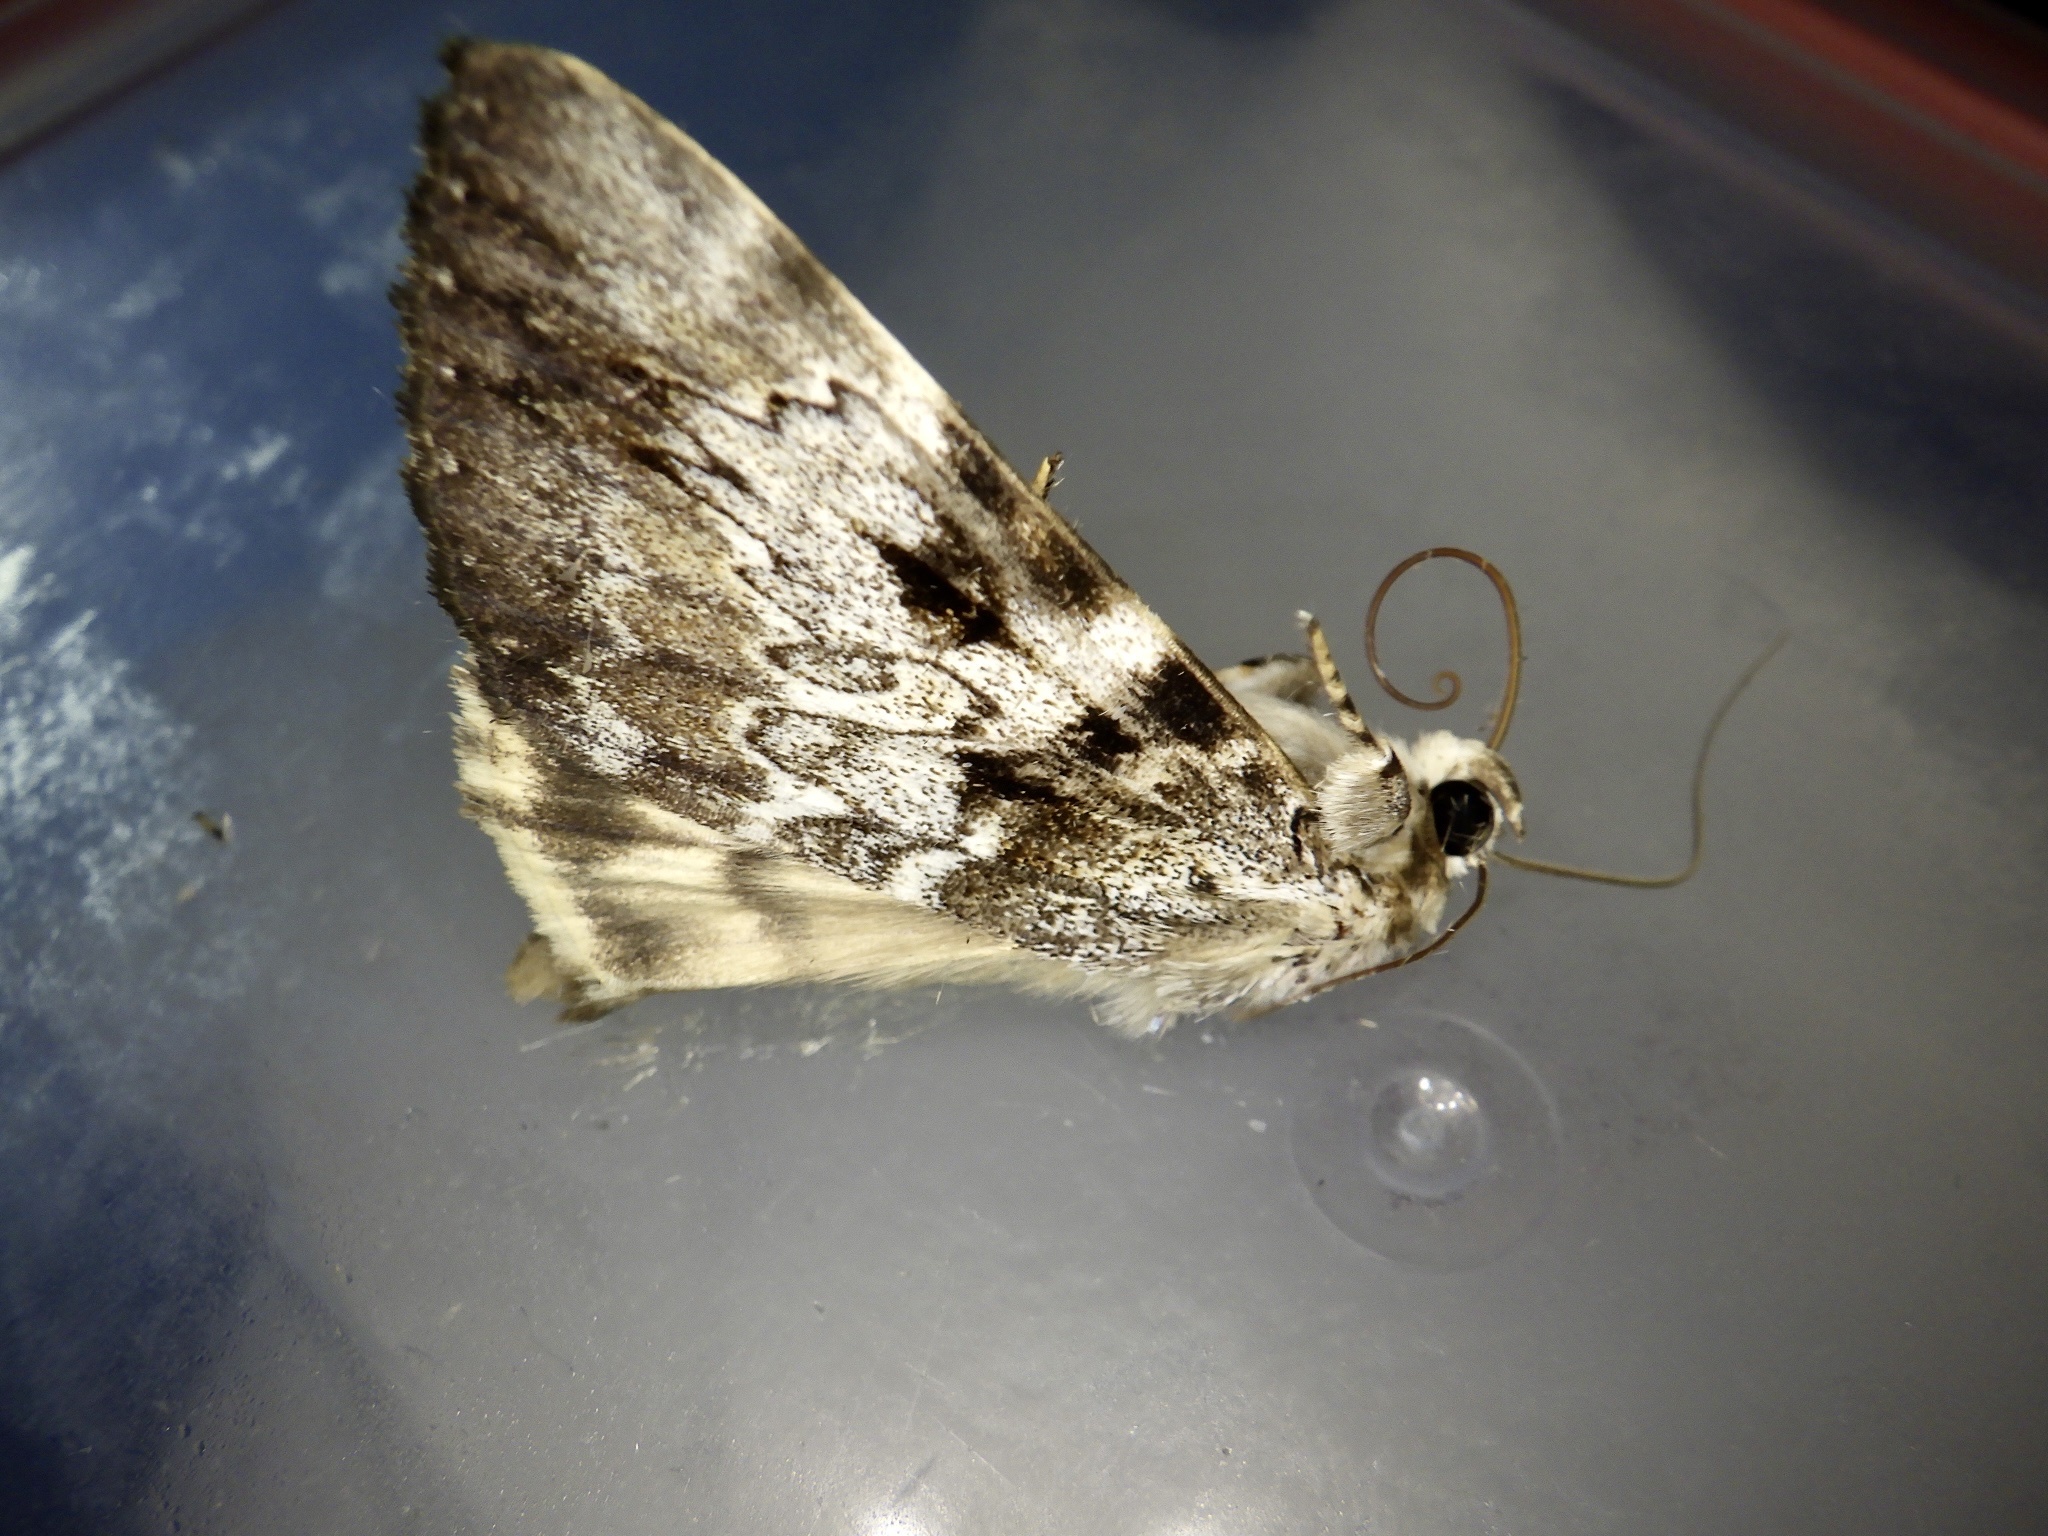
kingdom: Animalia
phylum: Arthropoda
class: Insecta
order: Lepidoptera
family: Erebidae
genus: Catocala
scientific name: Catocala intacta
